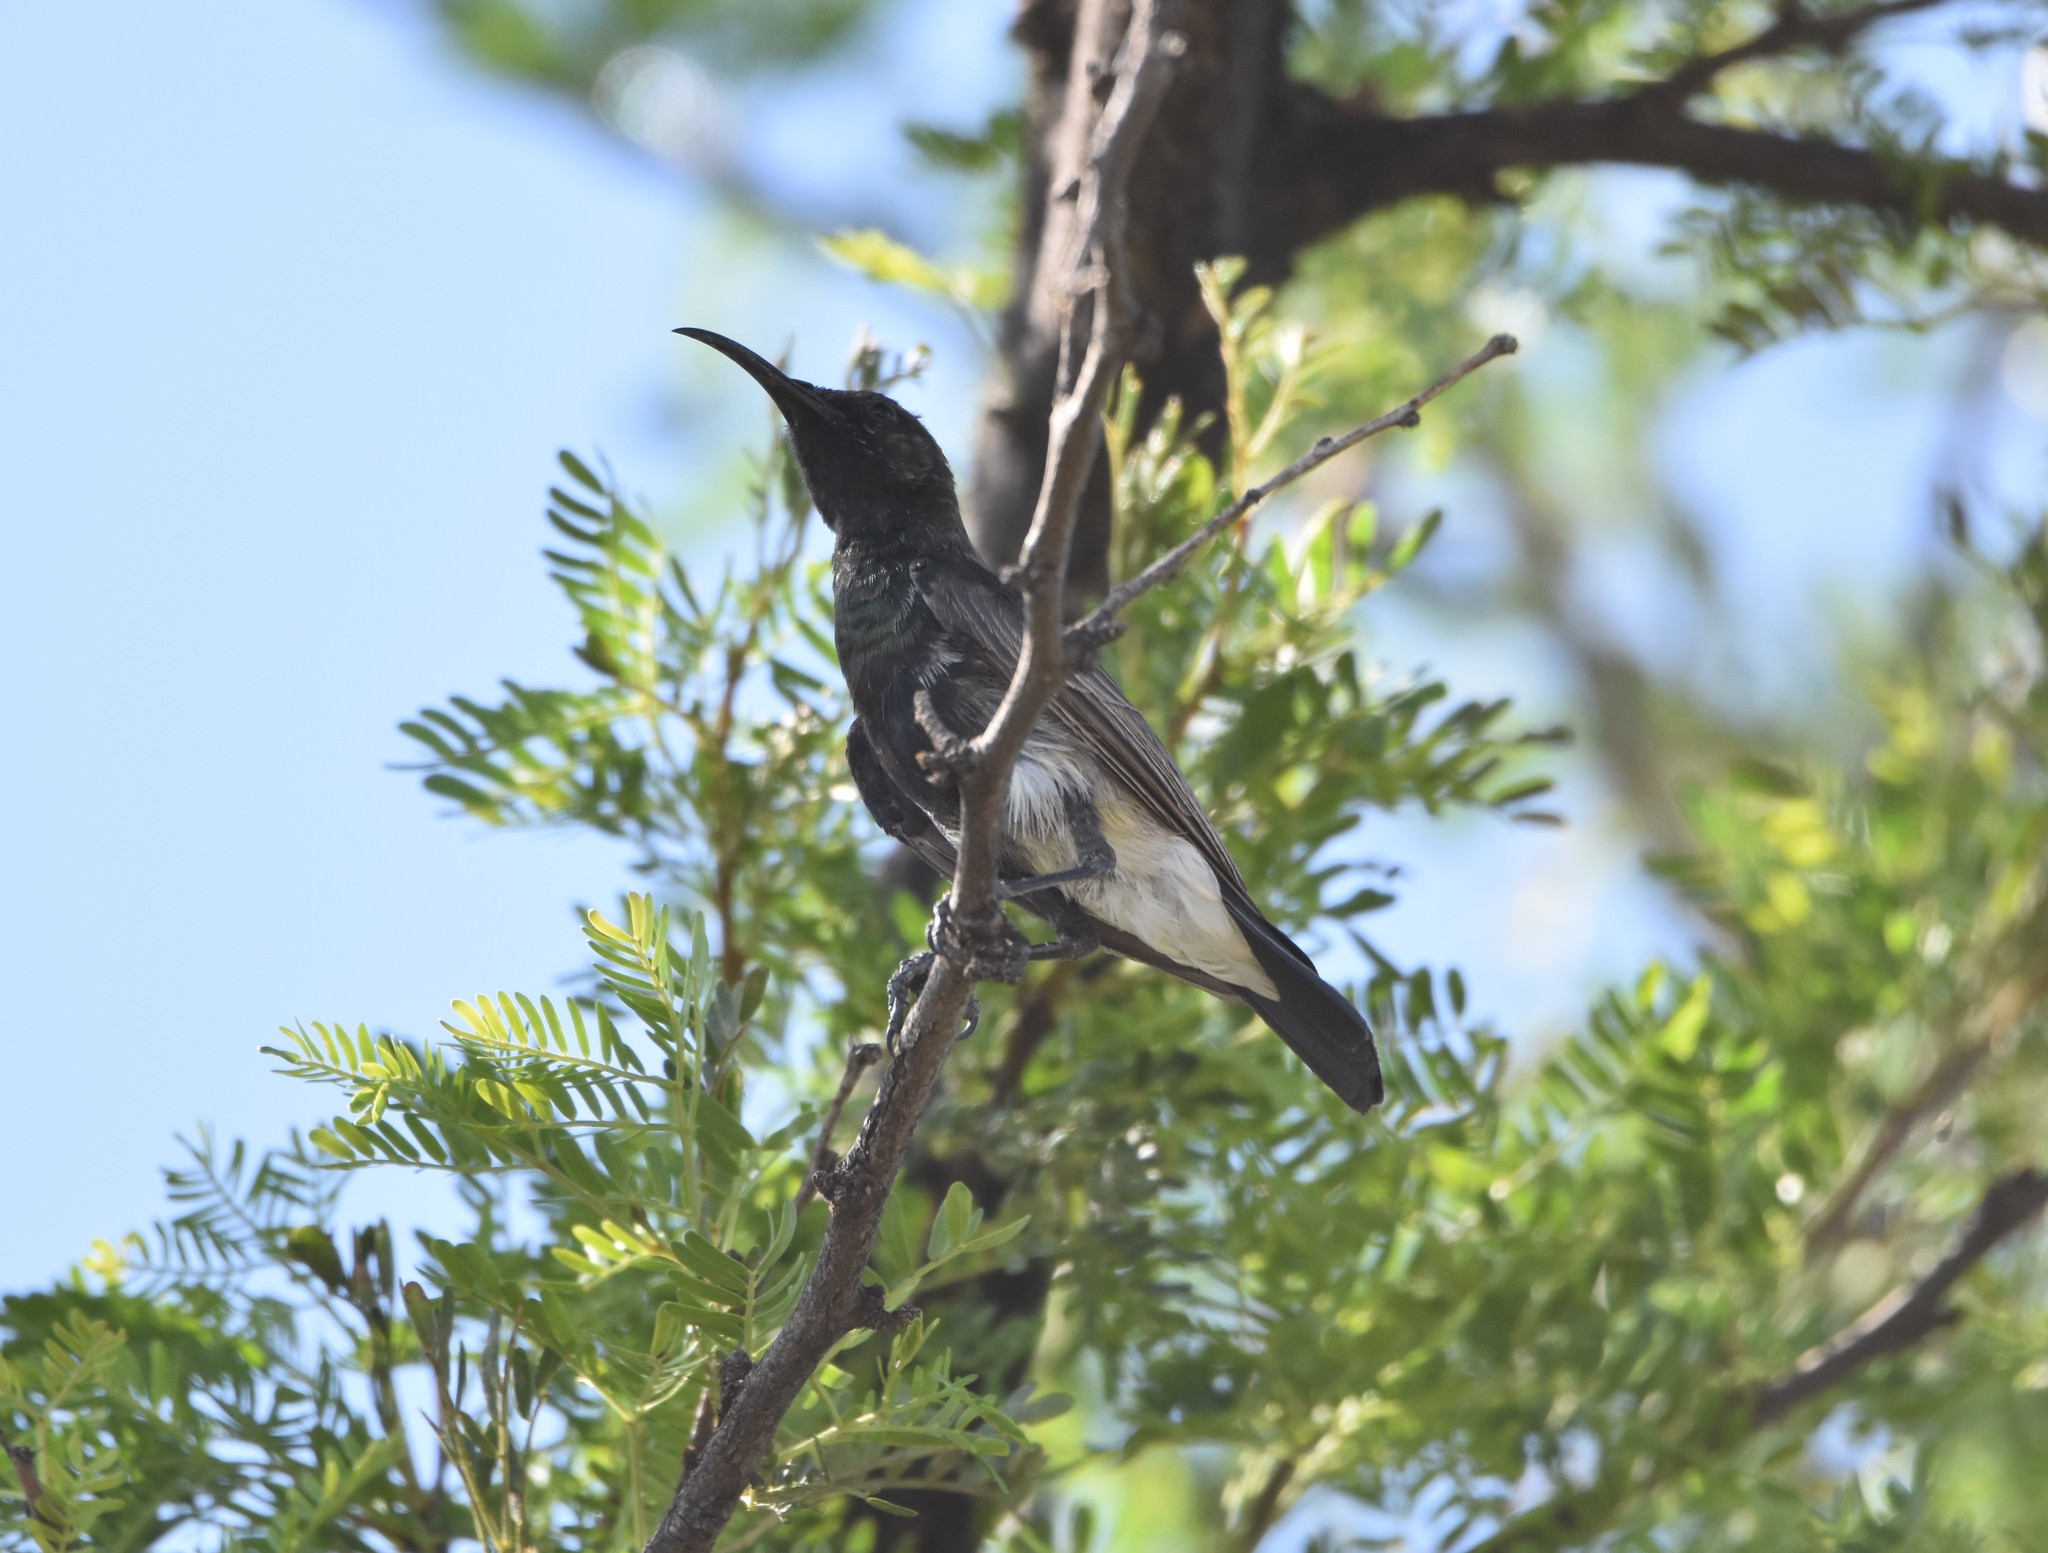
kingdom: Animalia
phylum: Chordata
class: Aves
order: Passeriformes
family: Nectariniidae
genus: Cinnyris
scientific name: Cinnyris fuscus
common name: Dusky sunbird
